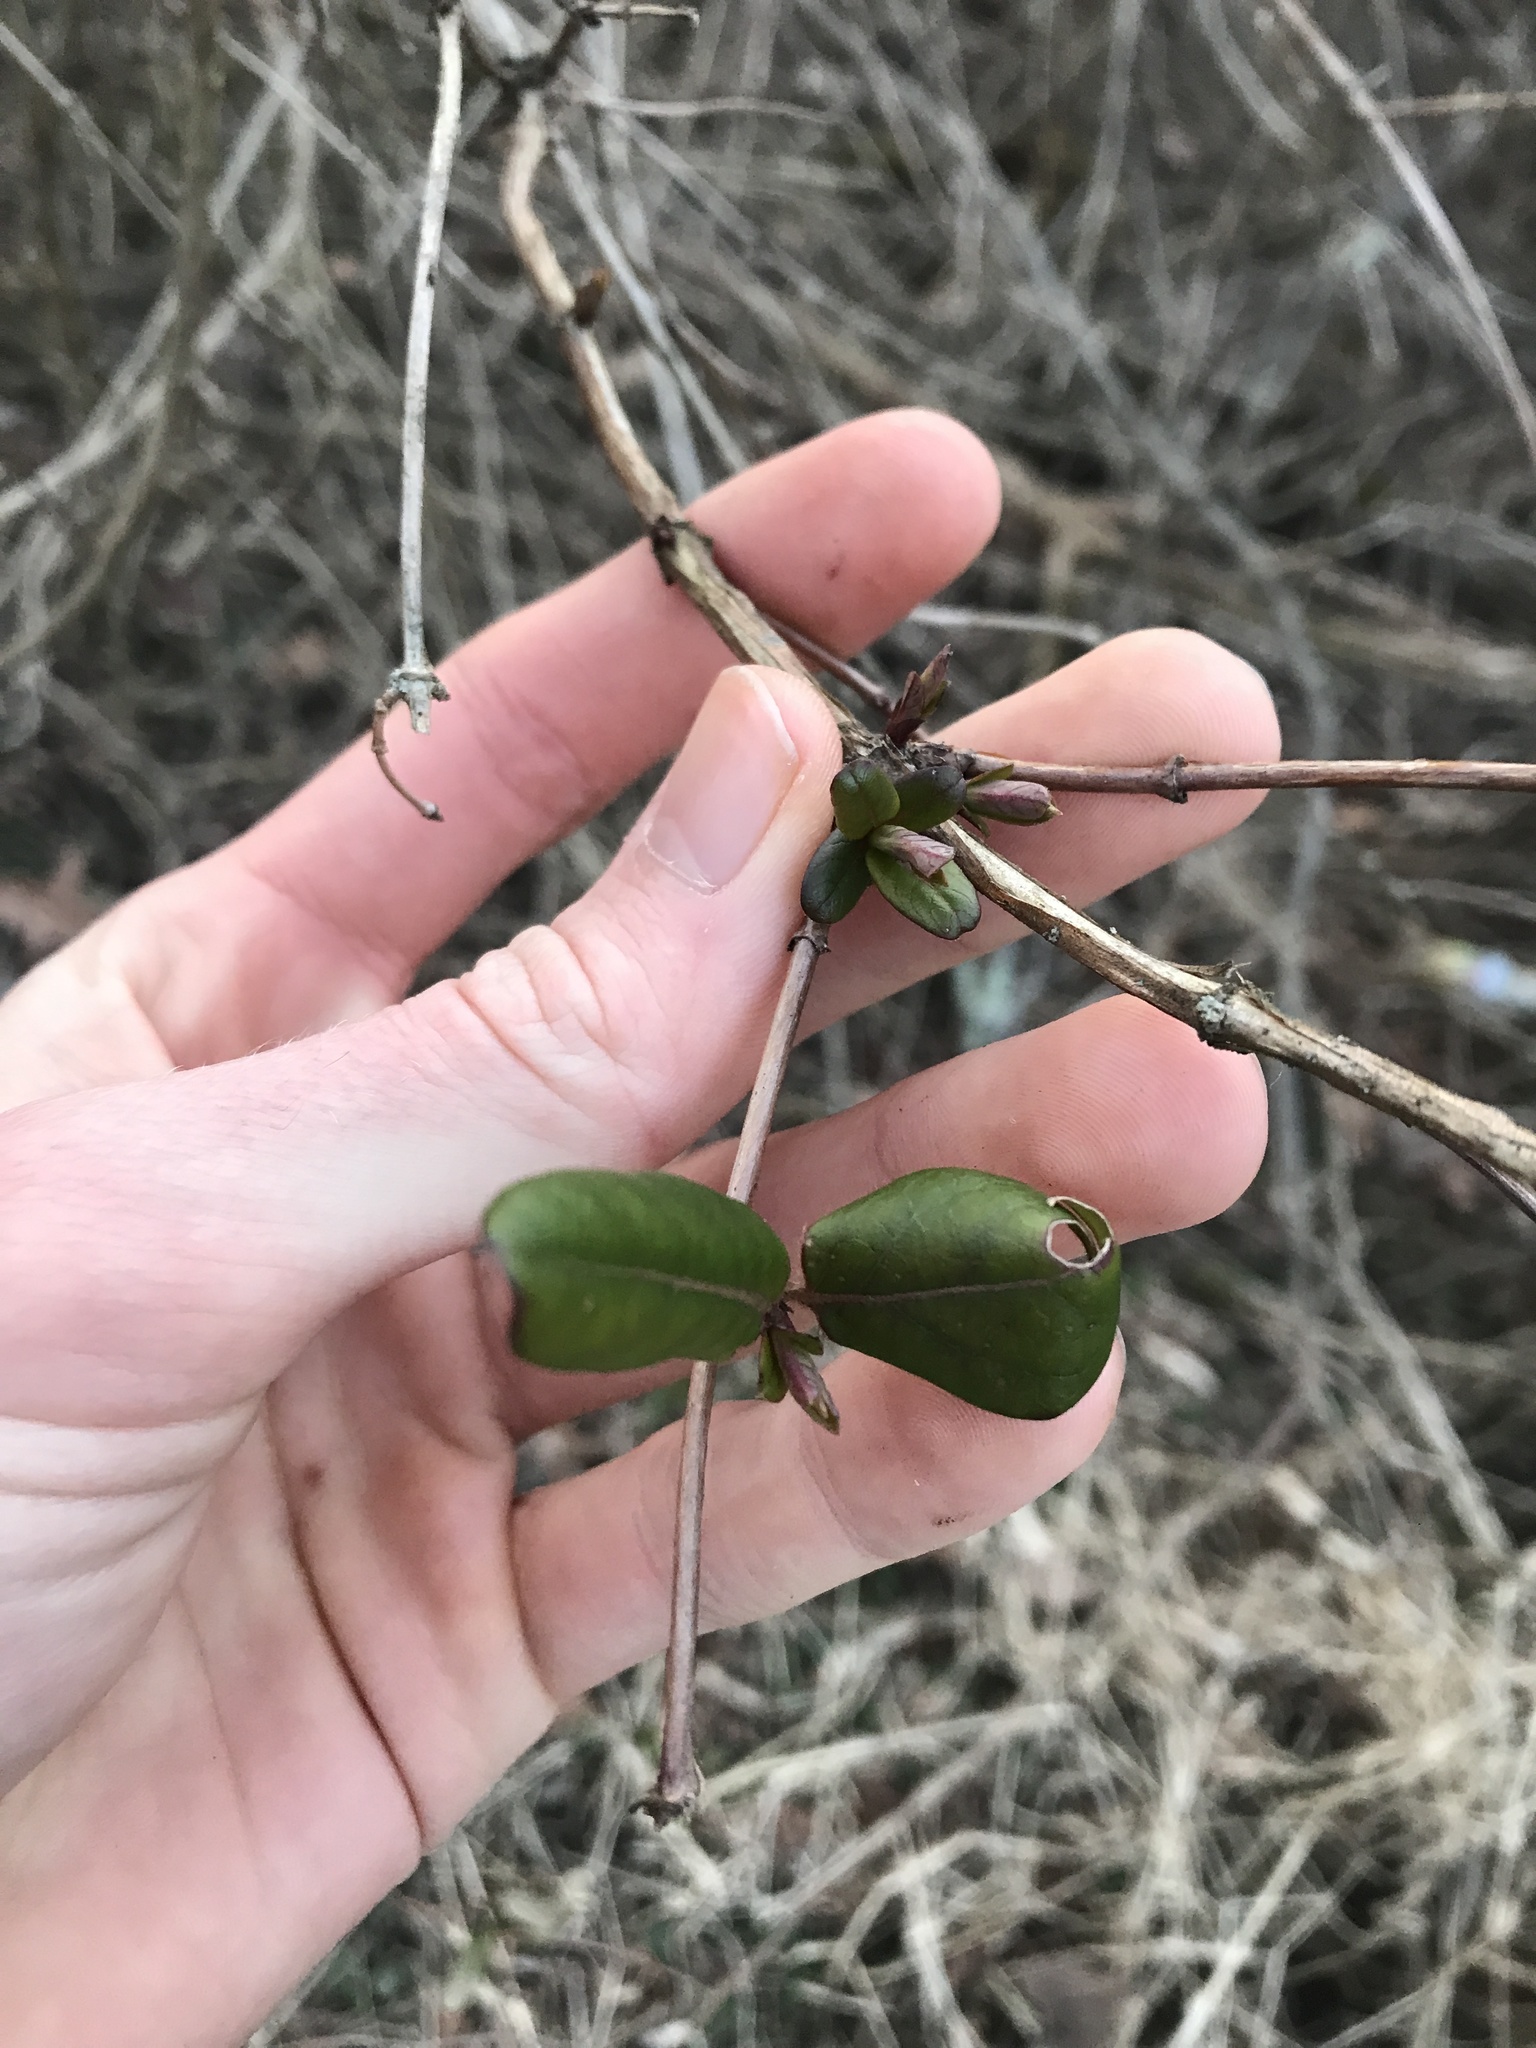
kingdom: Plantae
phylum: Tracheophyta
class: Magnoliopsida
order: Dipsacales
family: Caprifoliaceae
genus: Lonicera
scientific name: Lonicera japonica
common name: Japanese honeysuckle
